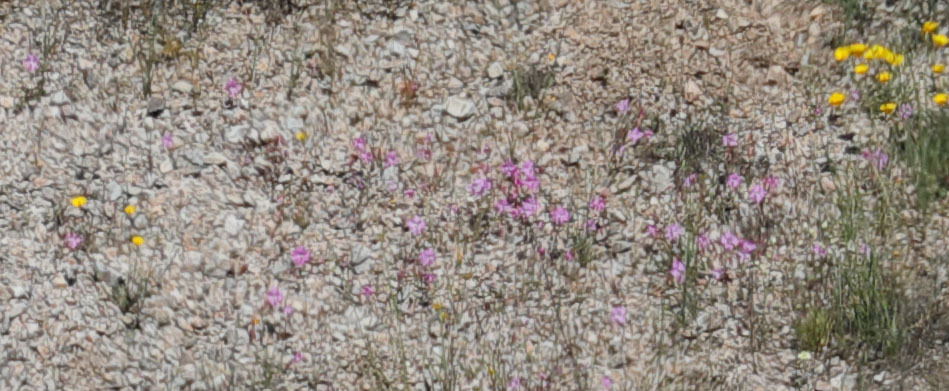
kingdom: Plantae
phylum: Tracheophyta
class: Magnoliopsida
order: Myrtales
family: Onagraceae
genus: Clarkia
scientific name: Clarkia breweri
